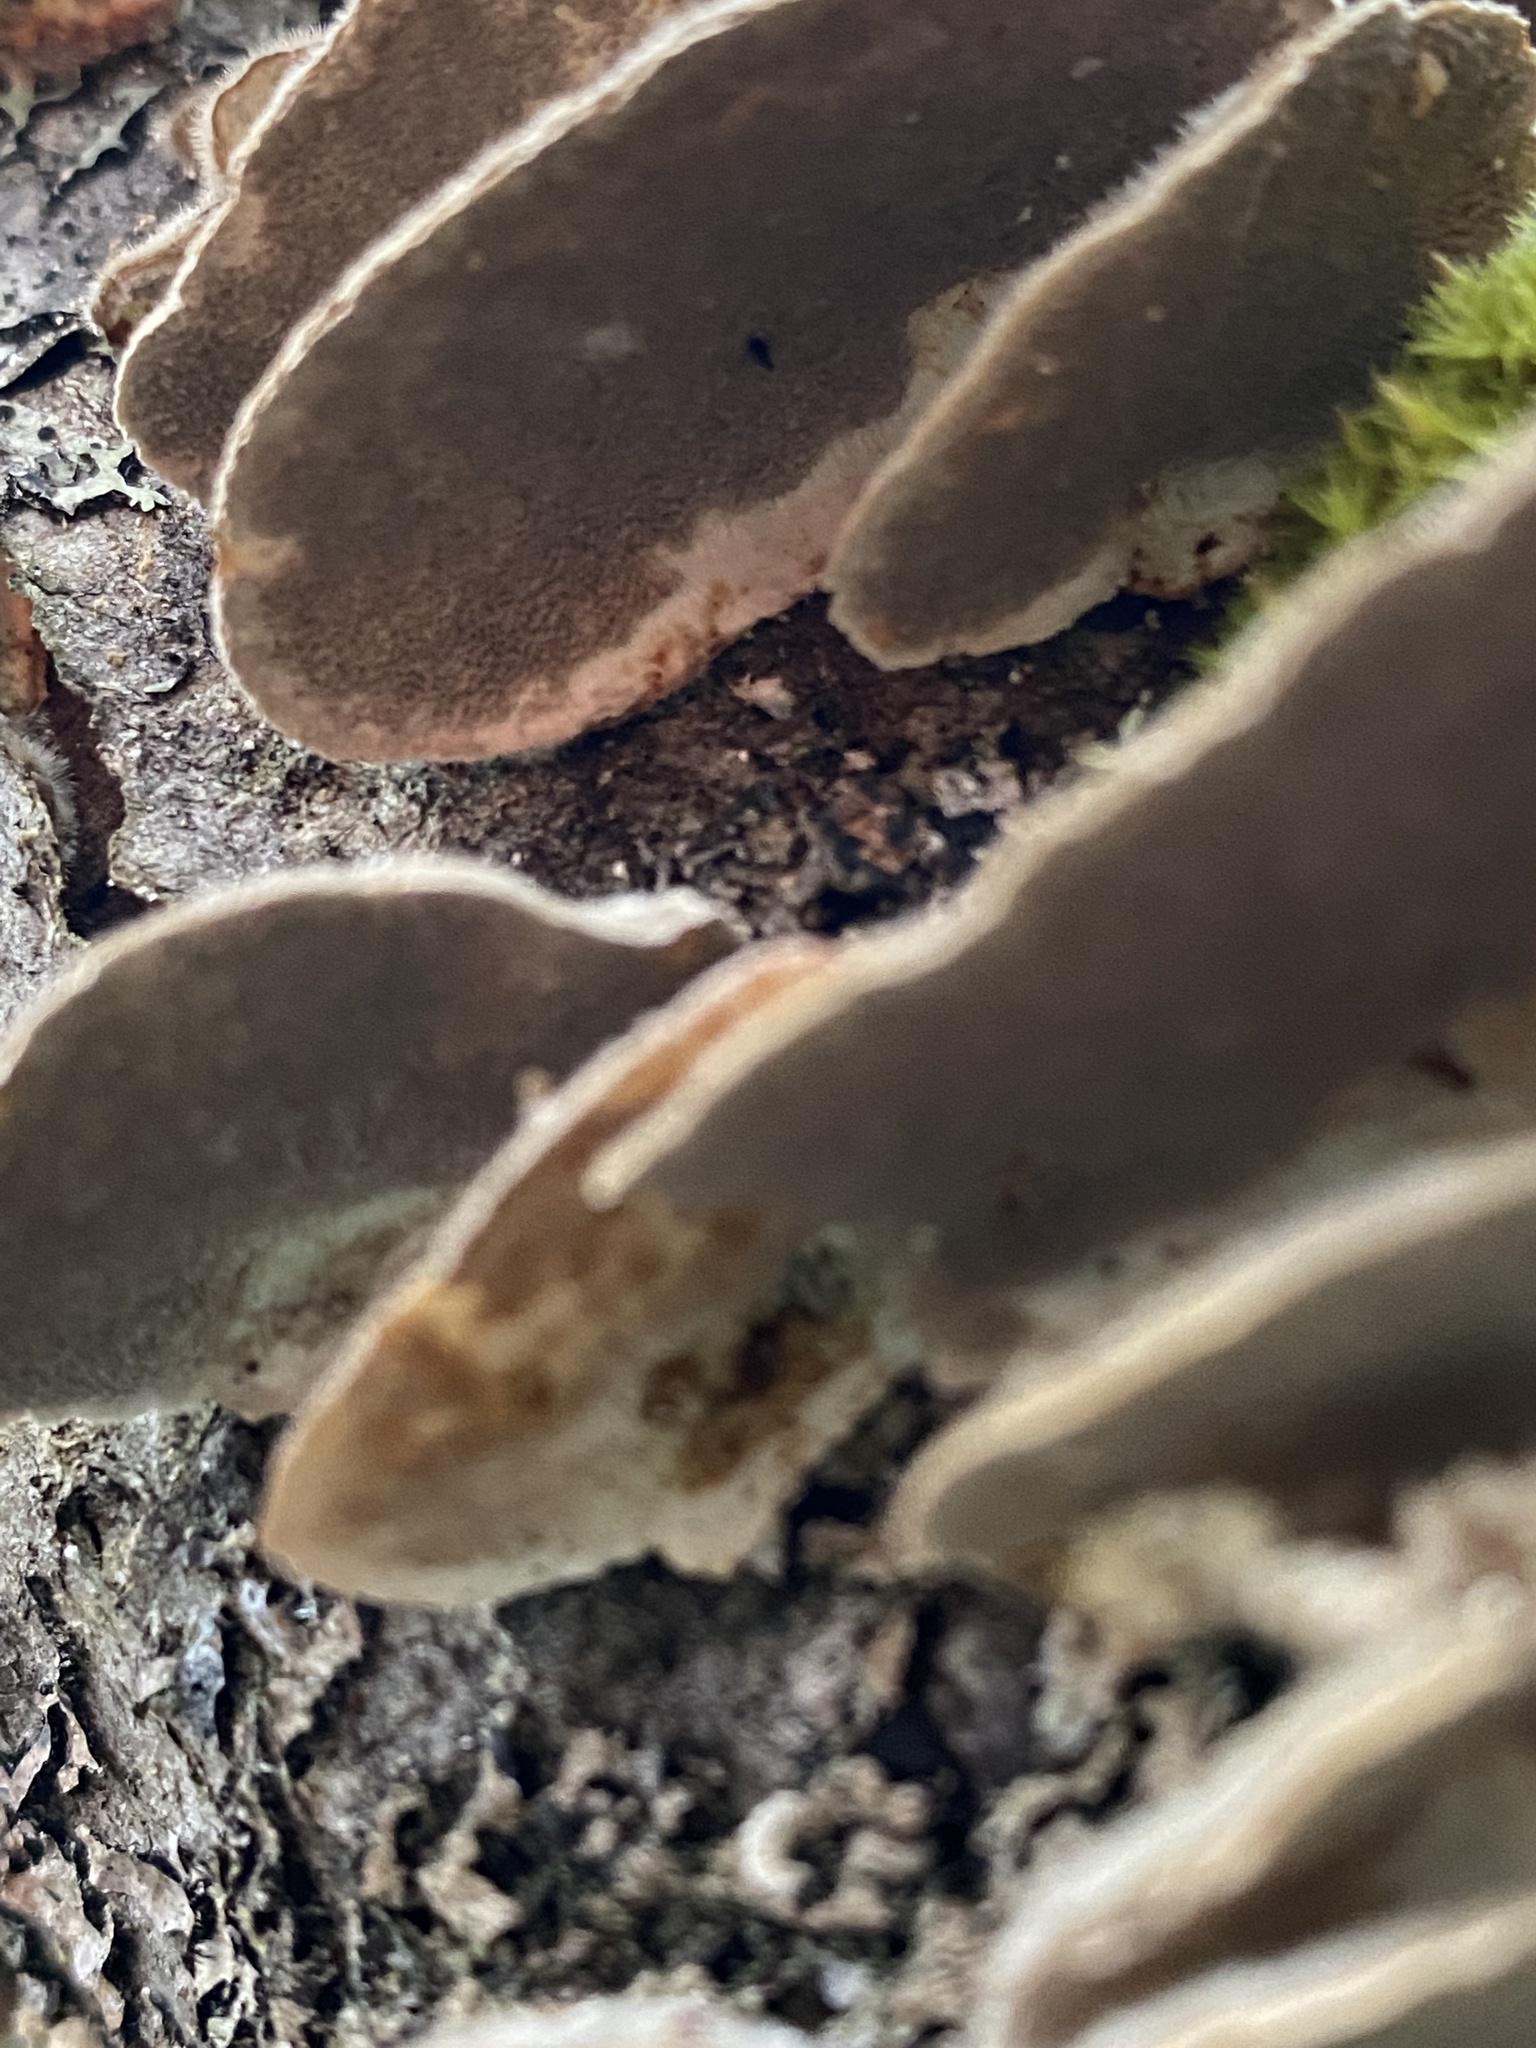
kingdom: Fungi
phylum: Basidiomycota
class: Agaricomycetes
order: Polyporales
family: Polyporaceae
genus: Trametes
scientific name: Trametes versicolor
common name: Turkeytail
